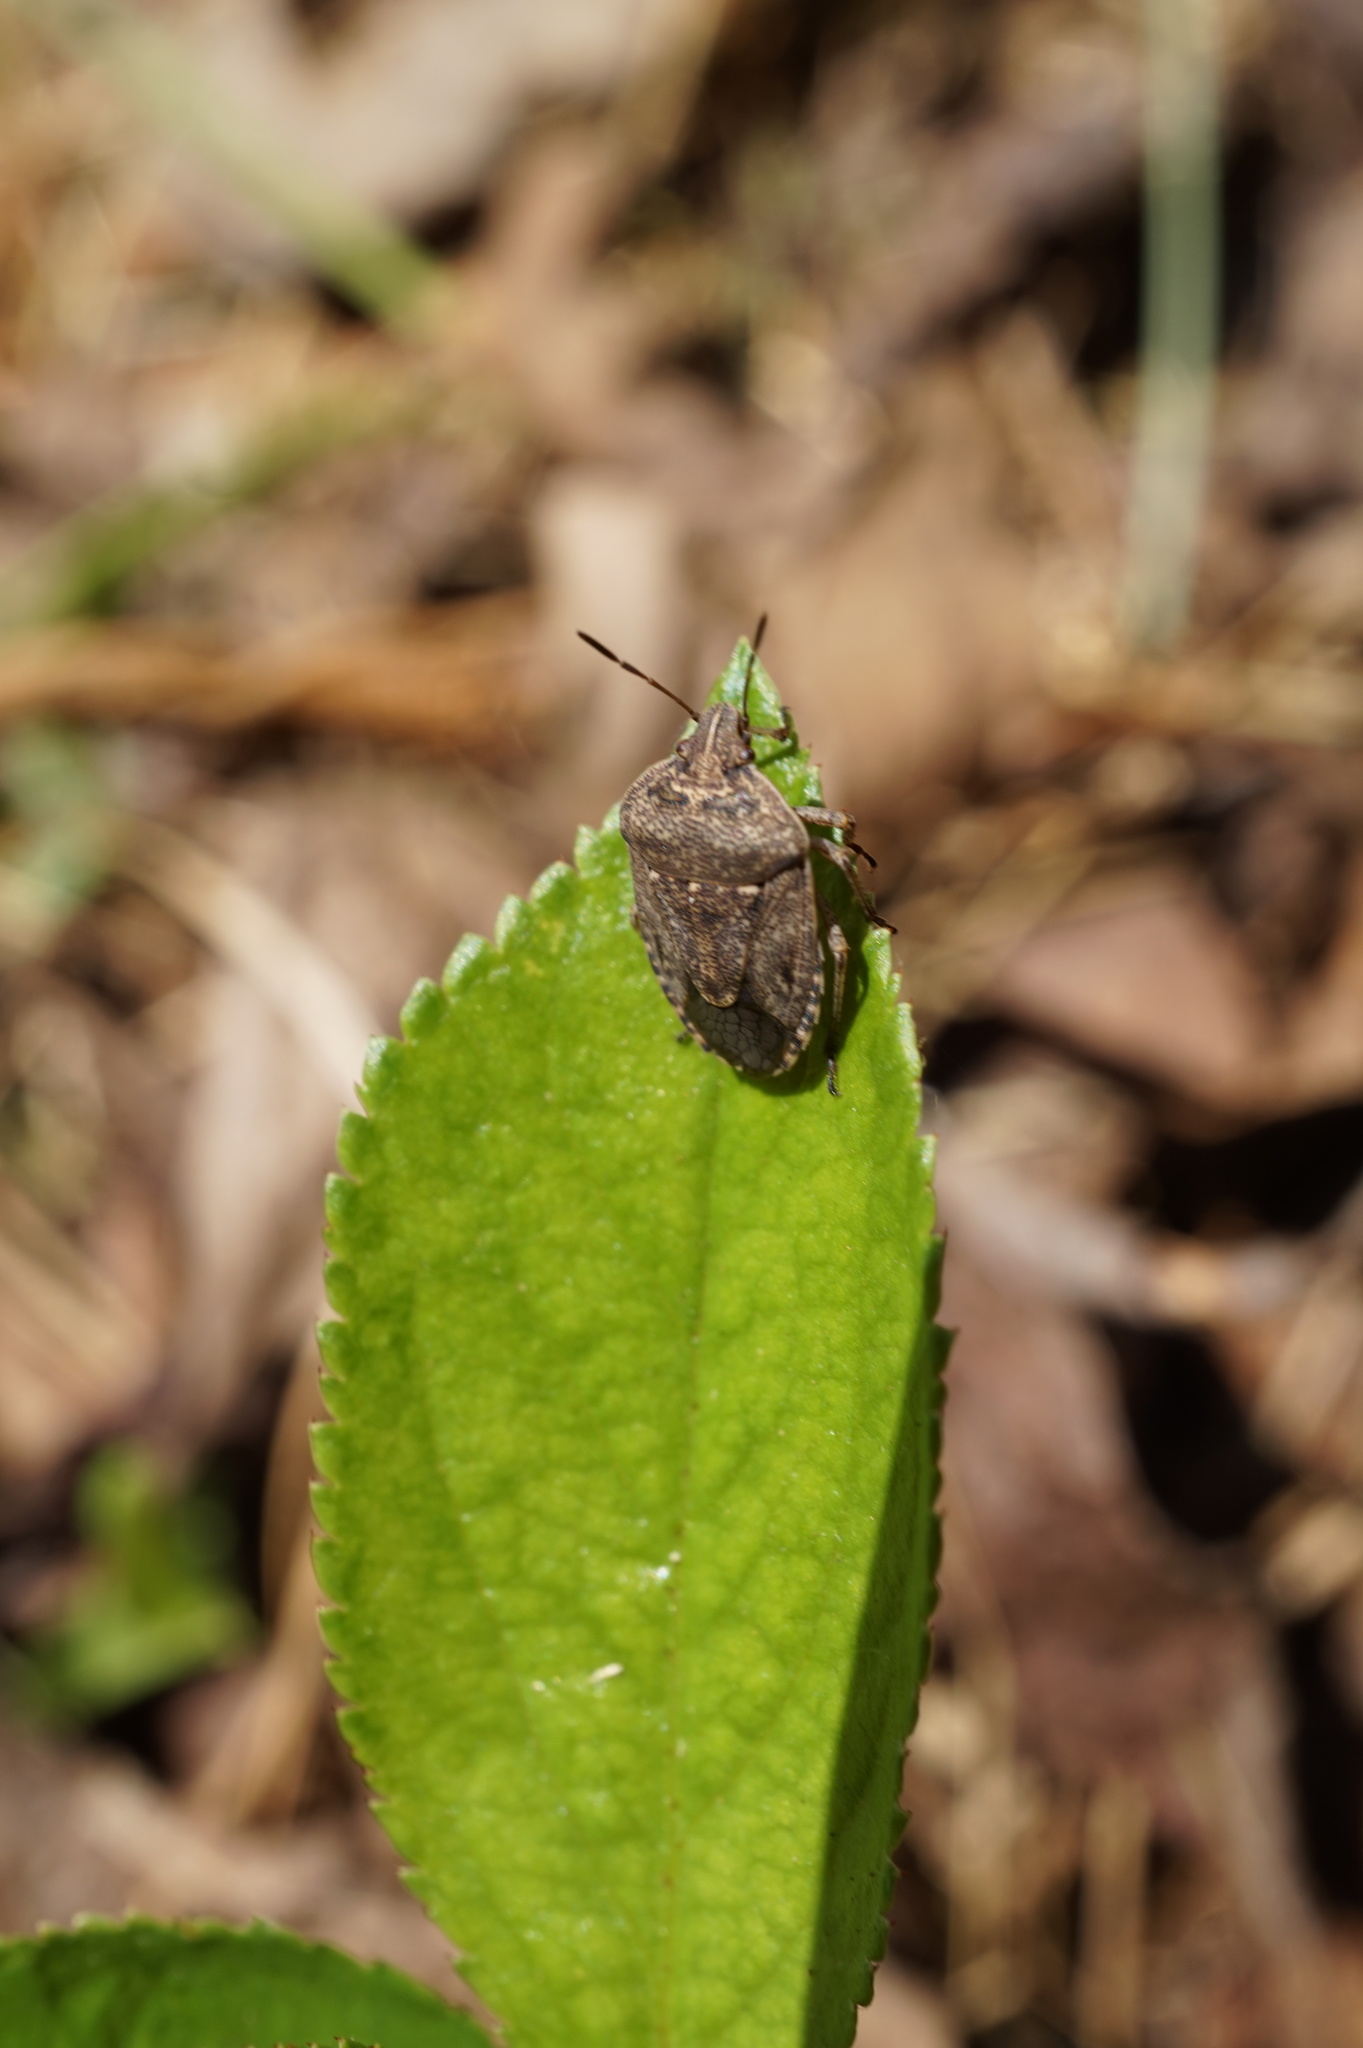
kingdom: Animalia
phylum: Arthropoda
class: Insecta
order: Hemiptera
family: Pentatomidae
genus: Hymenarcys
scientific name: Hymenarcys nervosa
